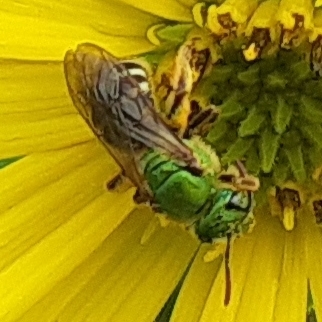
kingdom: Animalia
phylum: Arthropoda
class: Insecta
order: Hymenoptera
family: Halictidae
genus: Agapostemon
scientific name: Agapostemon virescens
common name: Bicolored striped sweat bee
